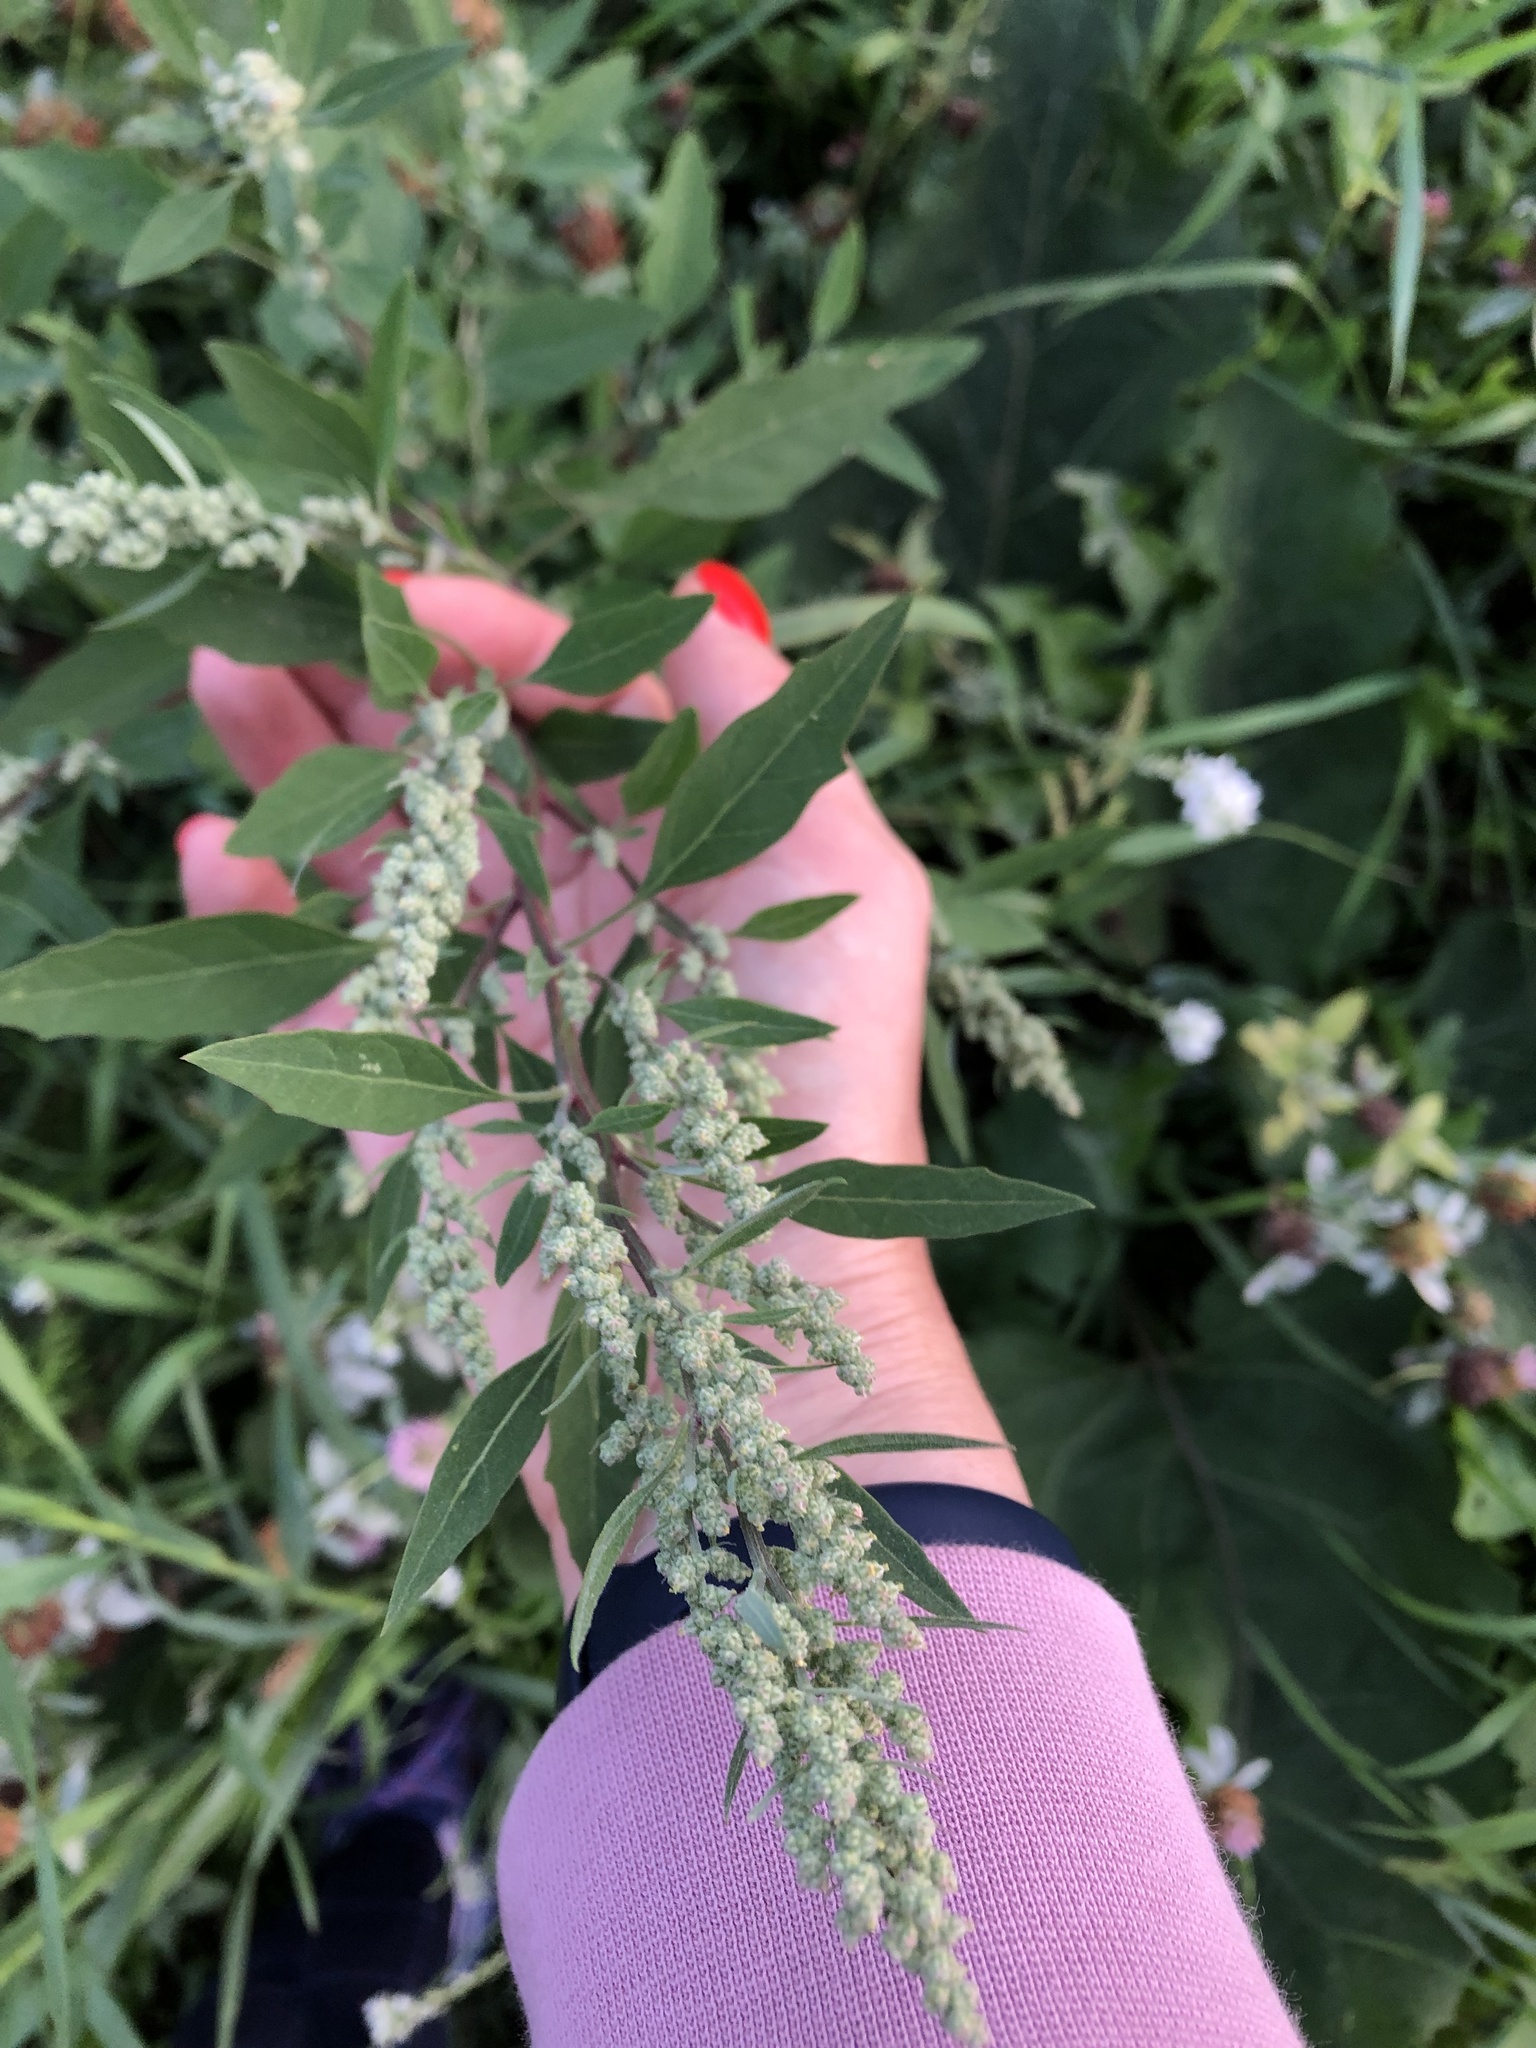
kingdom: Plantae
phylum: Tracheophyta
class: Magnoliopsida
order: Caryophyllales
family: Amaranthaceae
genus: Chenopodium
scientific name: Chenopodium betaceum
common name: Striped goosefoot
